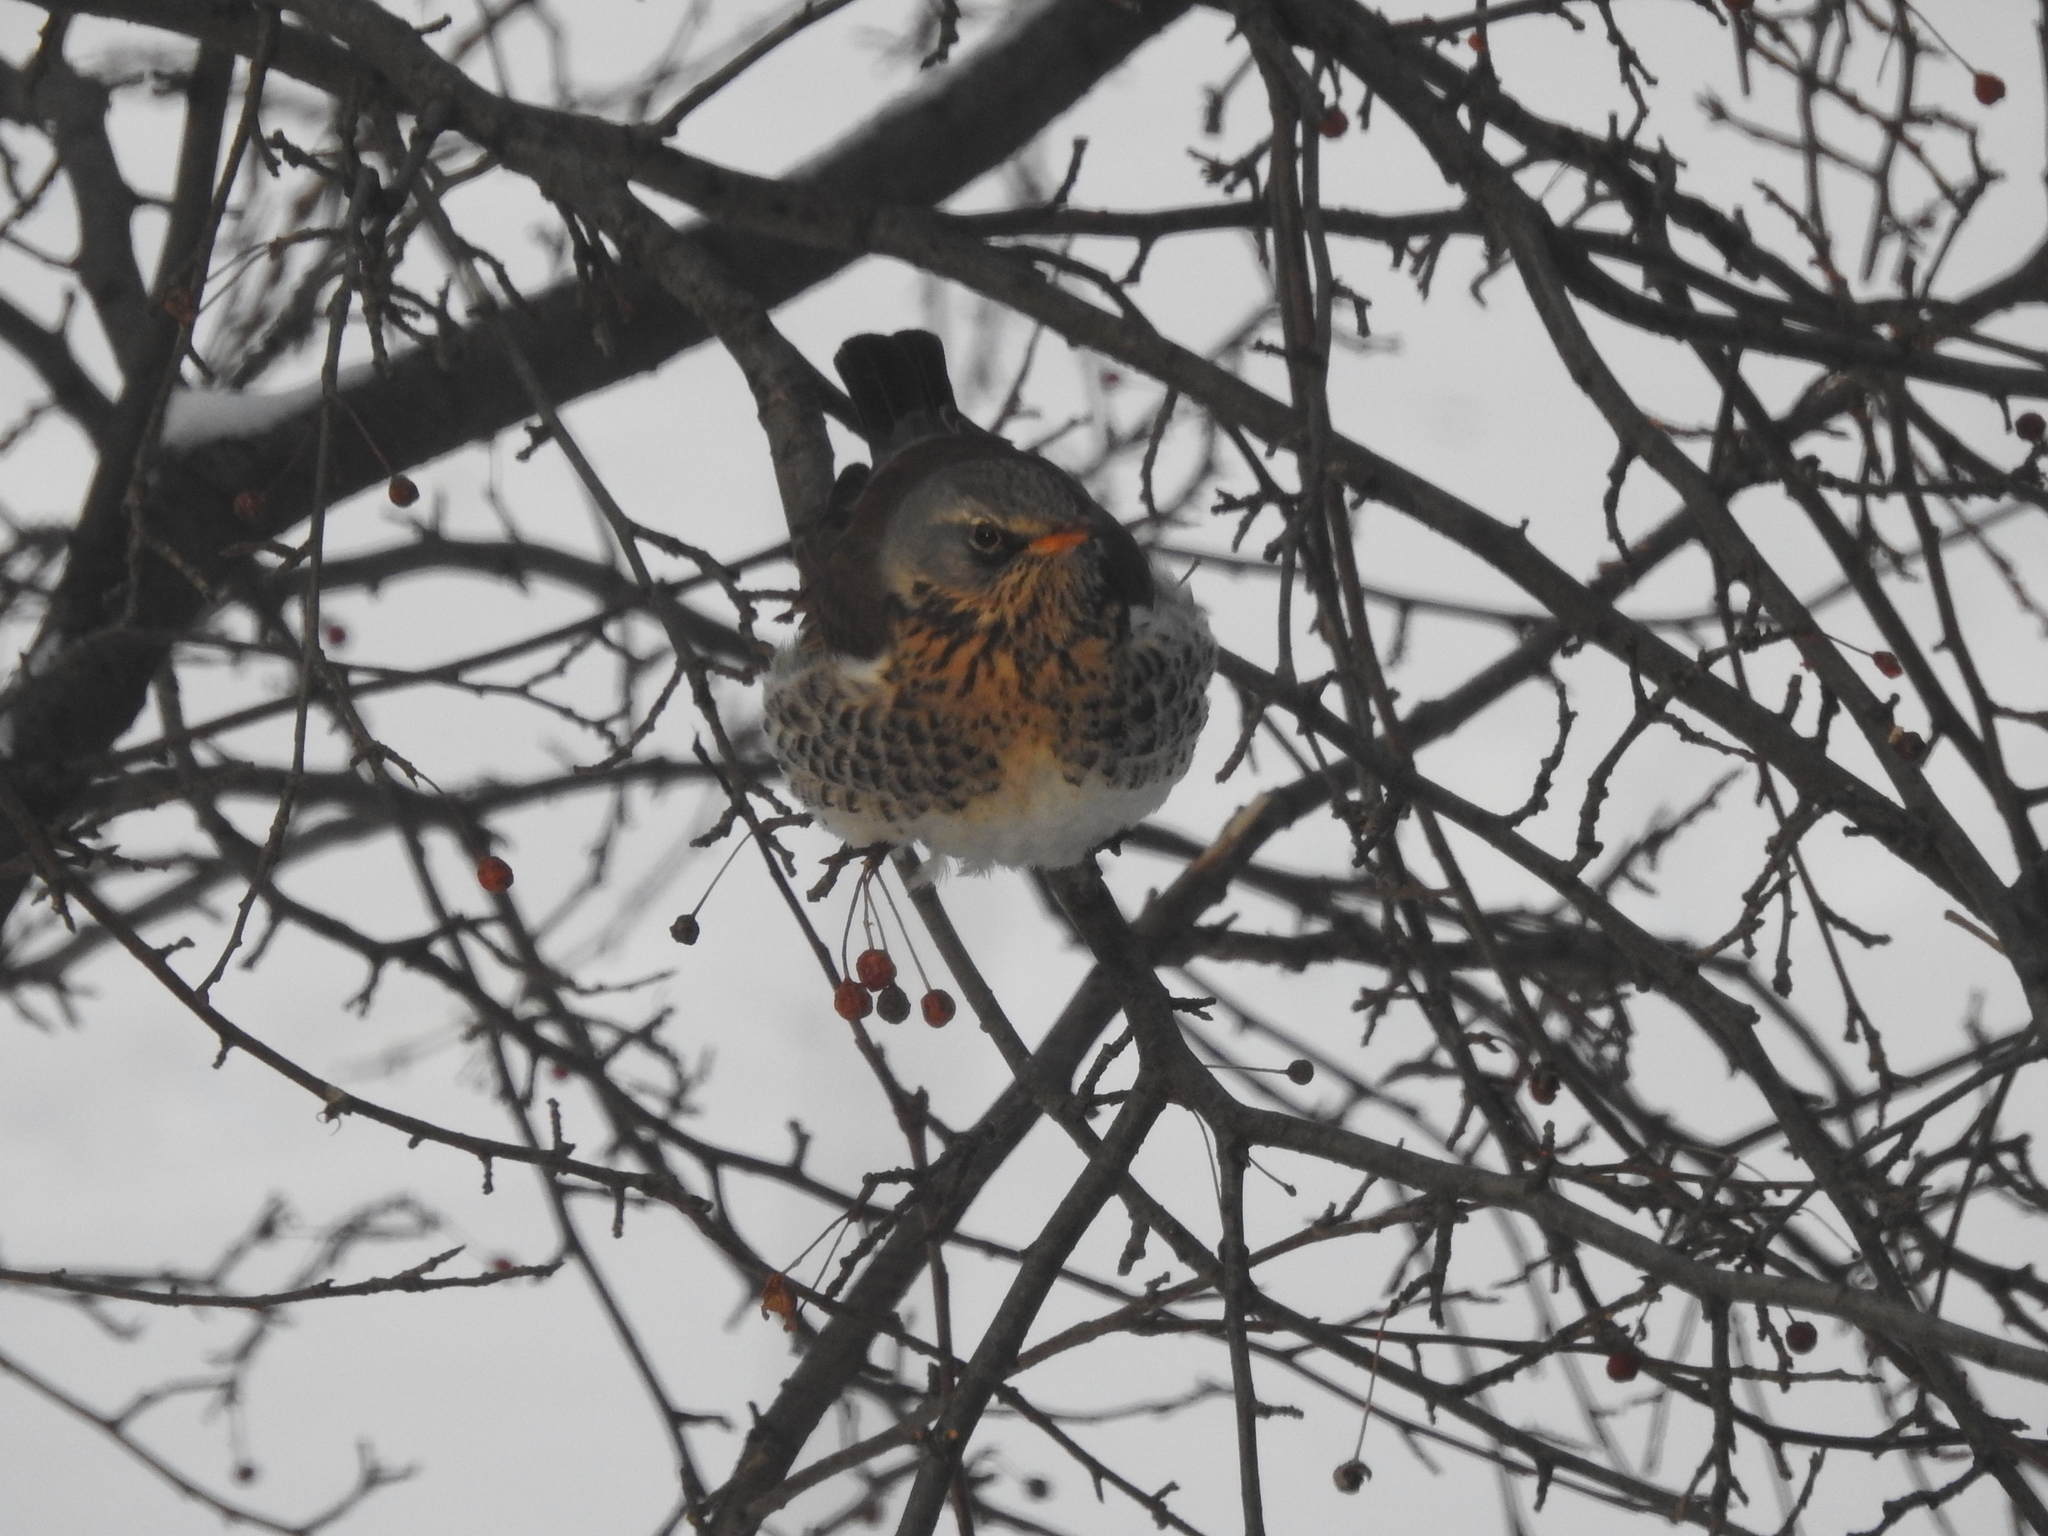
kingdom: Animalia
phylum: Chordata
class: Aves
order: Passeriformes
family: Turdidae
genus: Turdus
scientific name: Turdus pilaris
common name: Fieldfare
